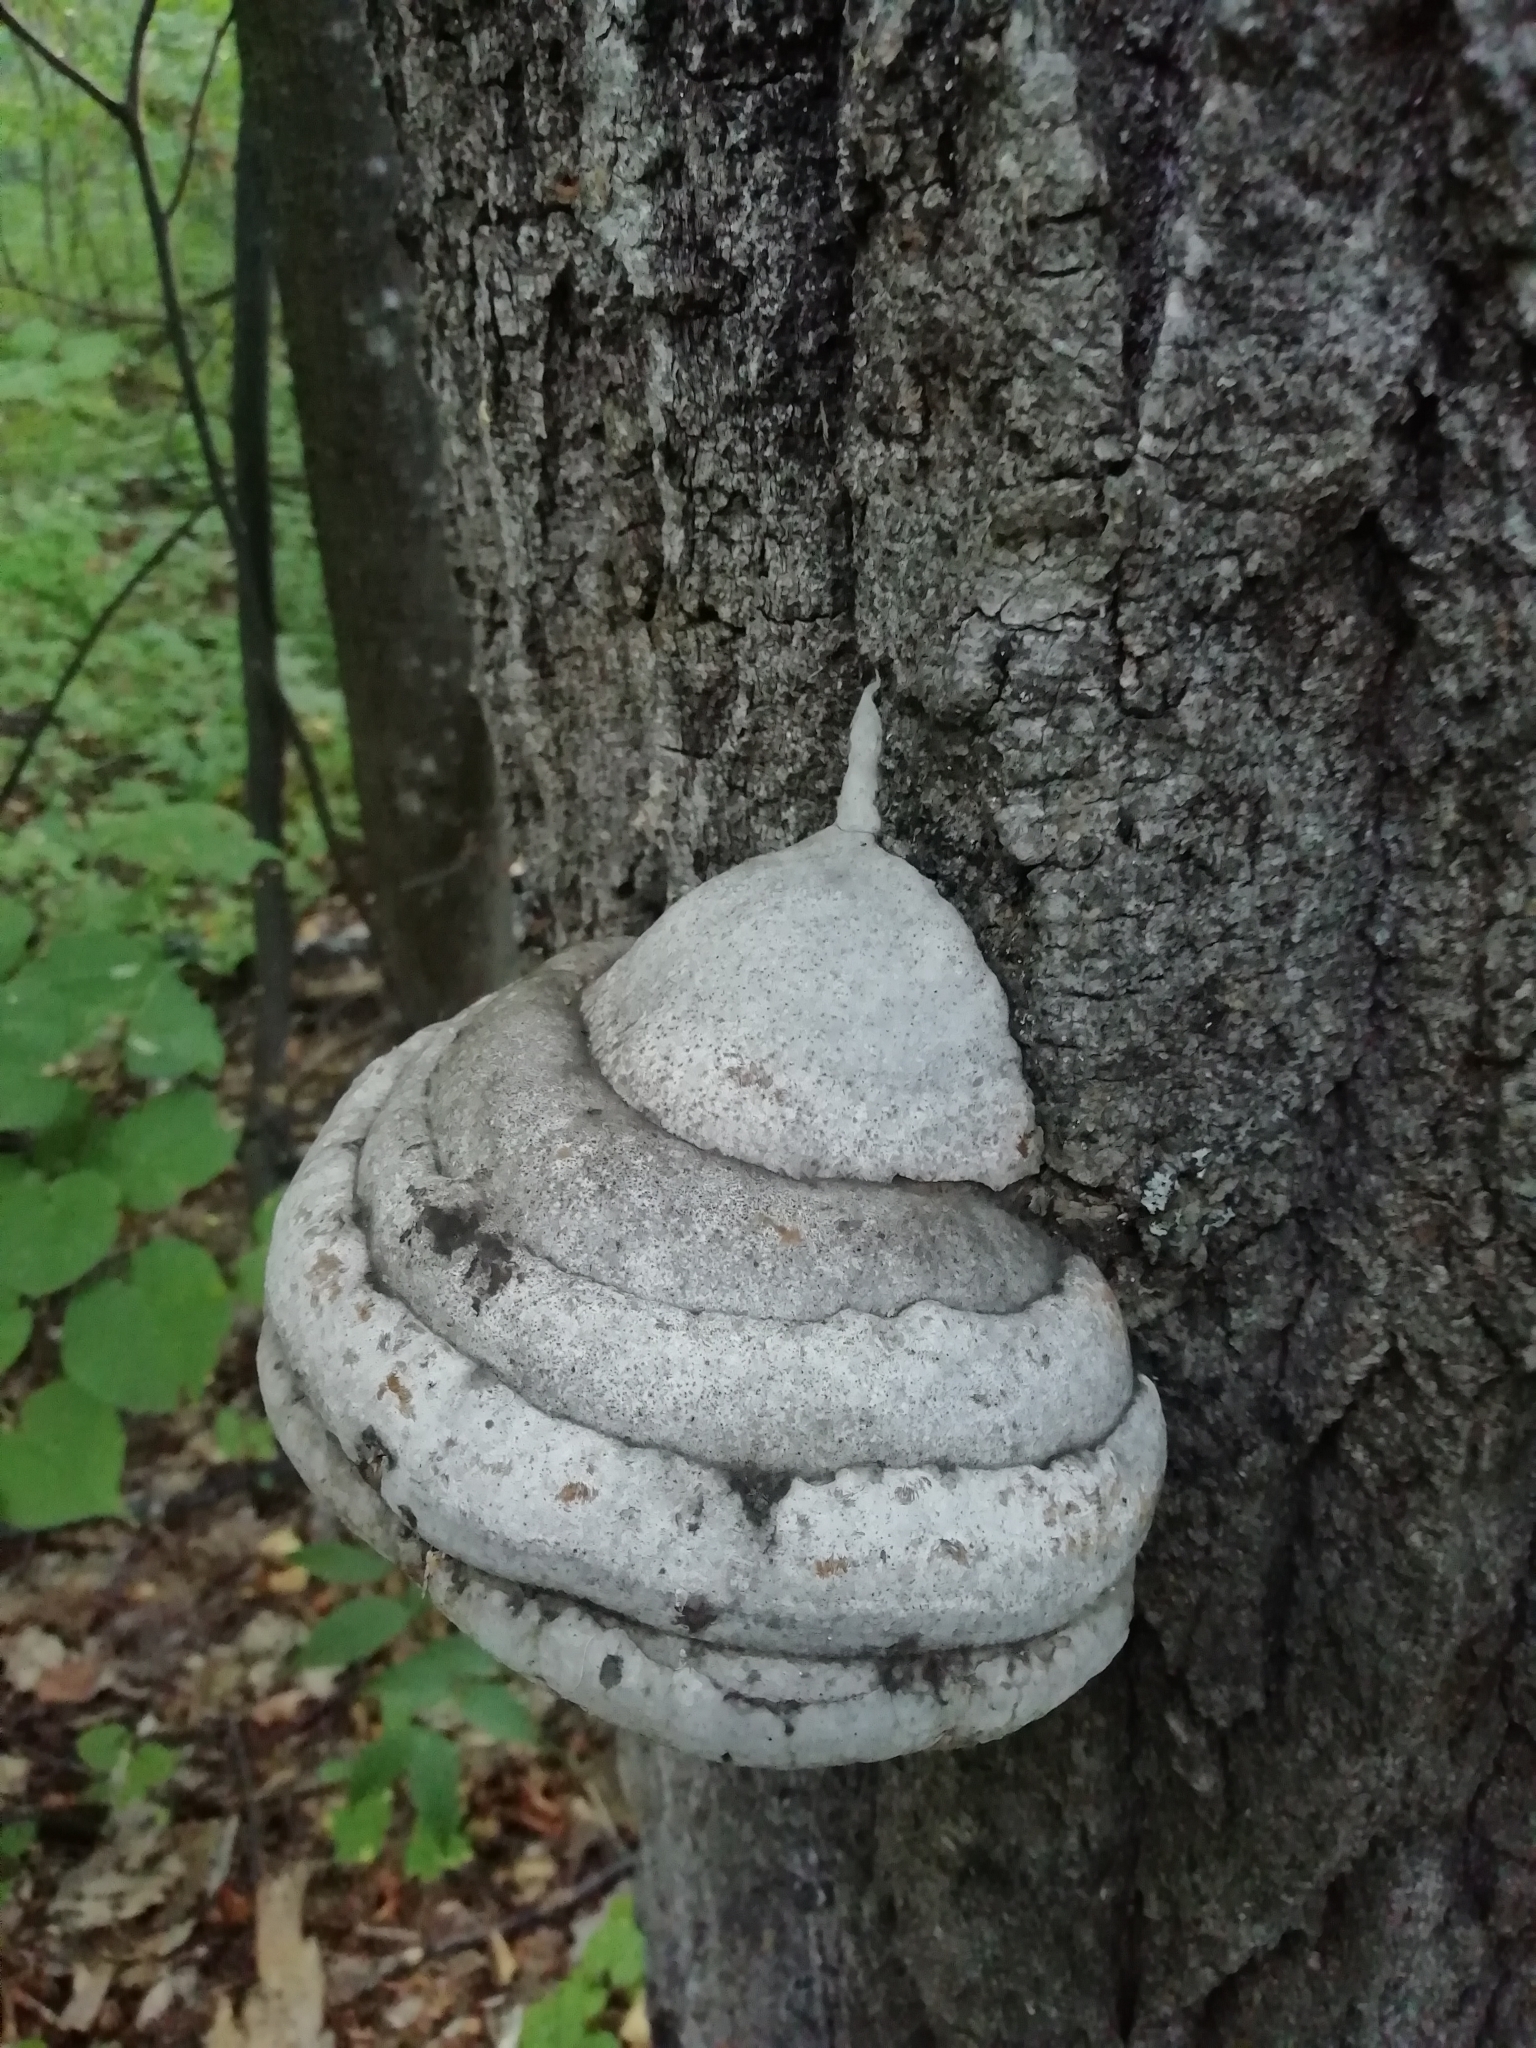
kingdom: Fungi
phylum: Basidiomycota
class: Agaricomycetes
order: Polyporales
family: Polyporaceae
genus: Fomes
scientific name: Fomes fomentarius
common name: Hoof fungus
